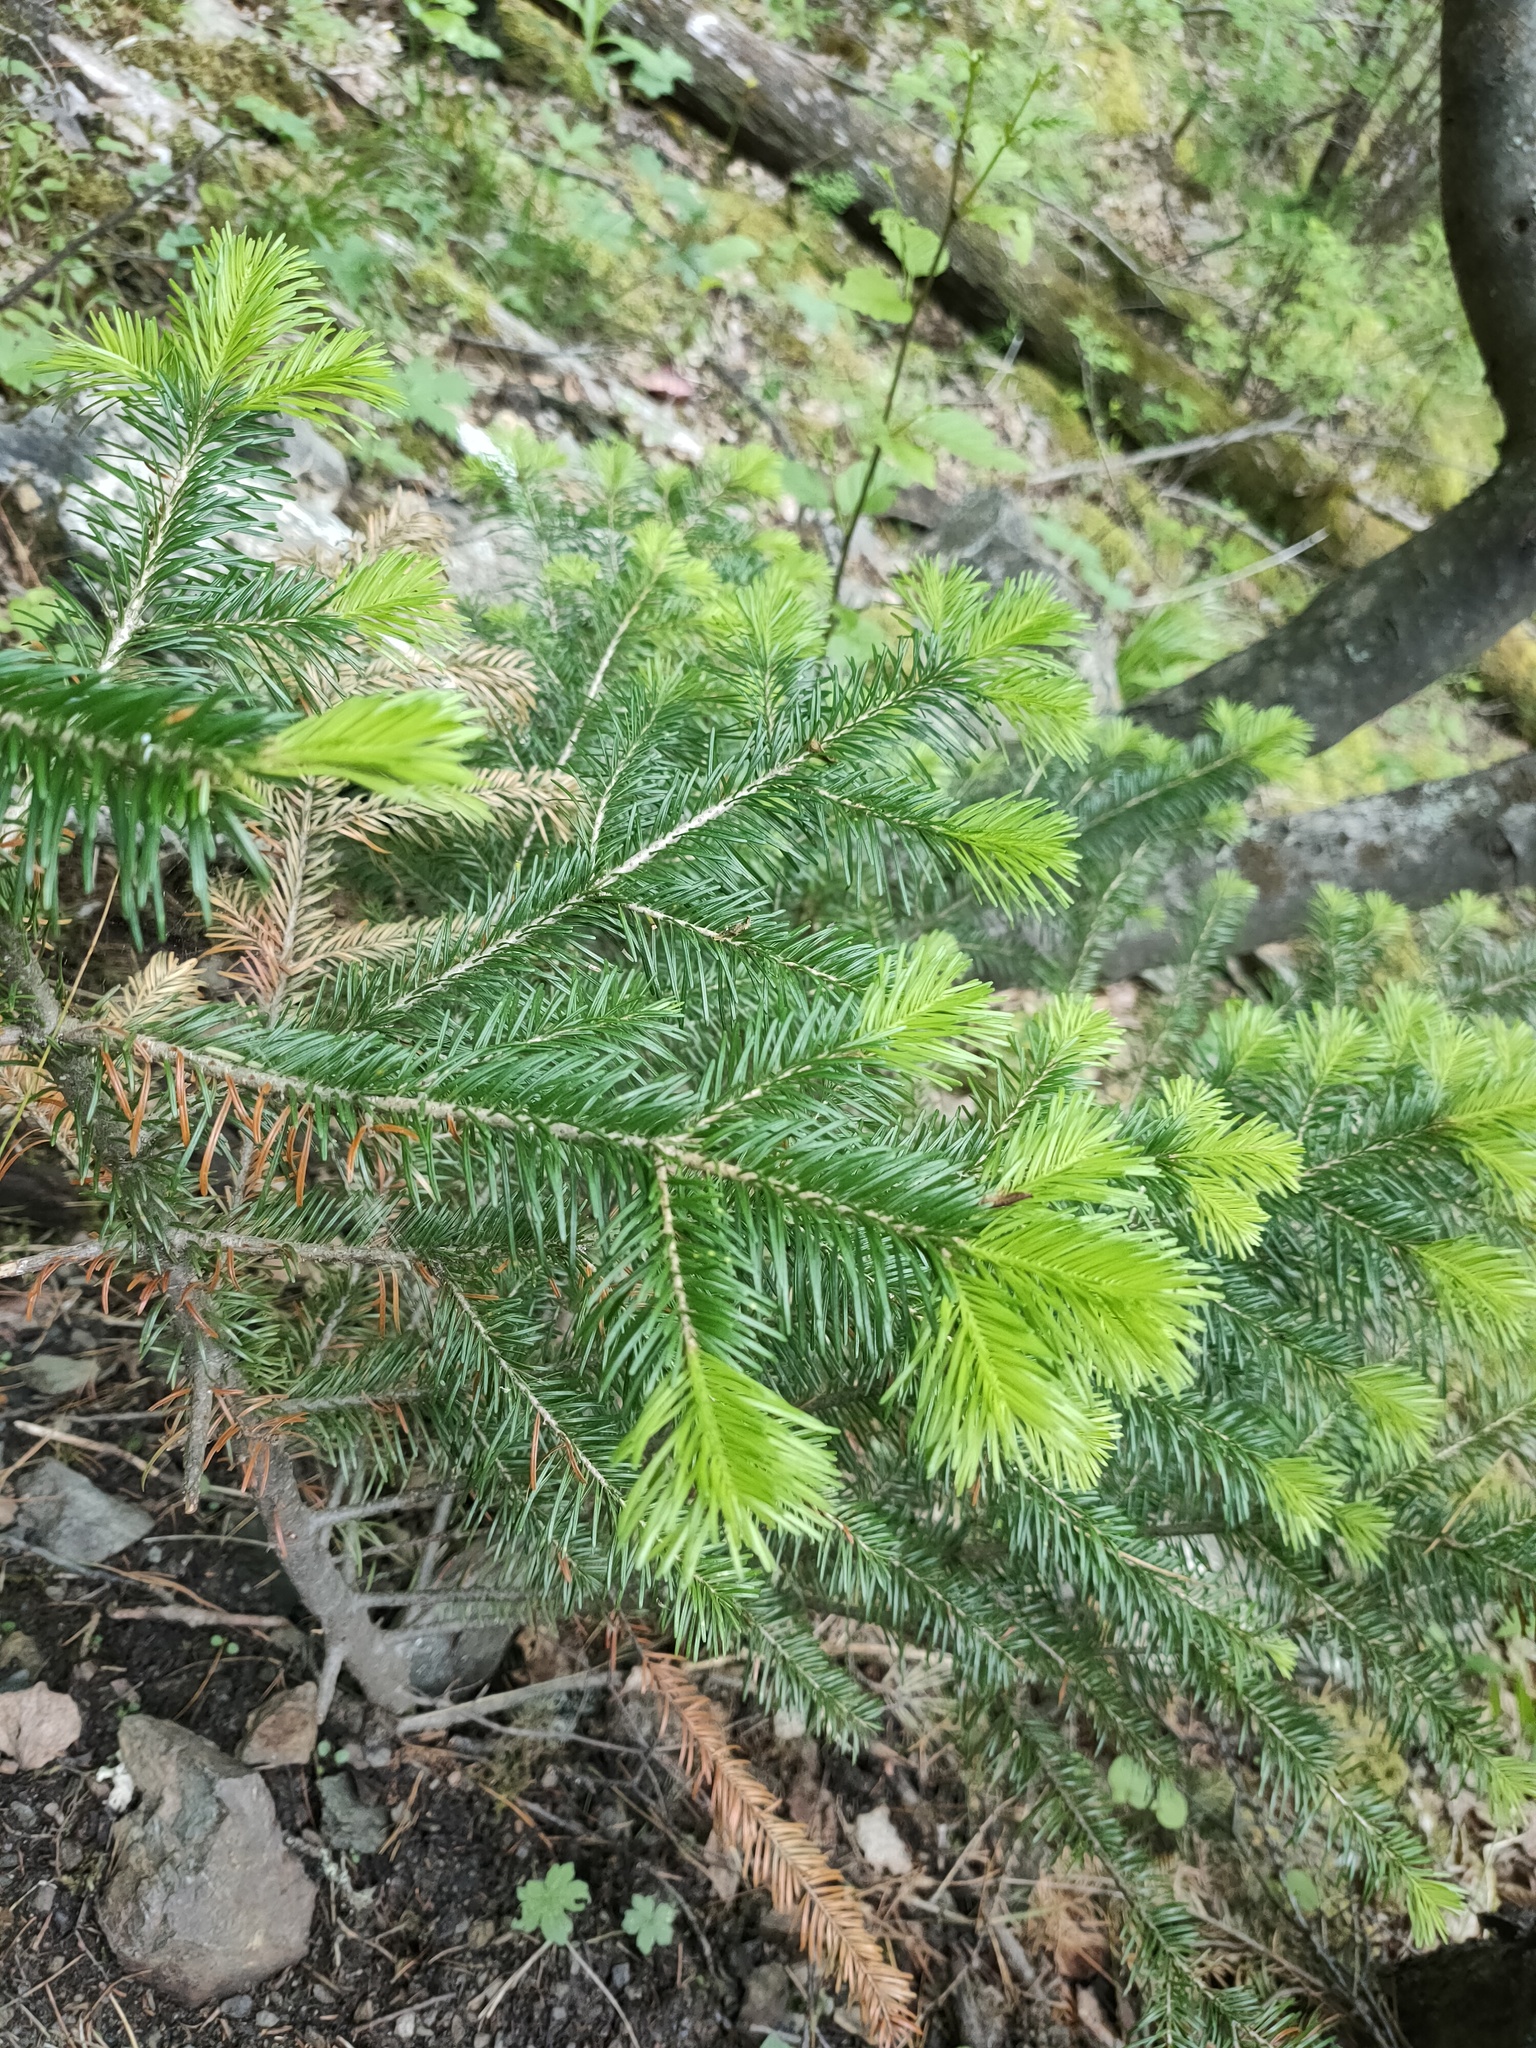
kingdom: Plantae
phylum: Tracheophyta
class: Pinopsida
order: Pinales
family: Pinaceae
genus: Abies
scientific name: Abies sibirica
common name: Siberian fir
